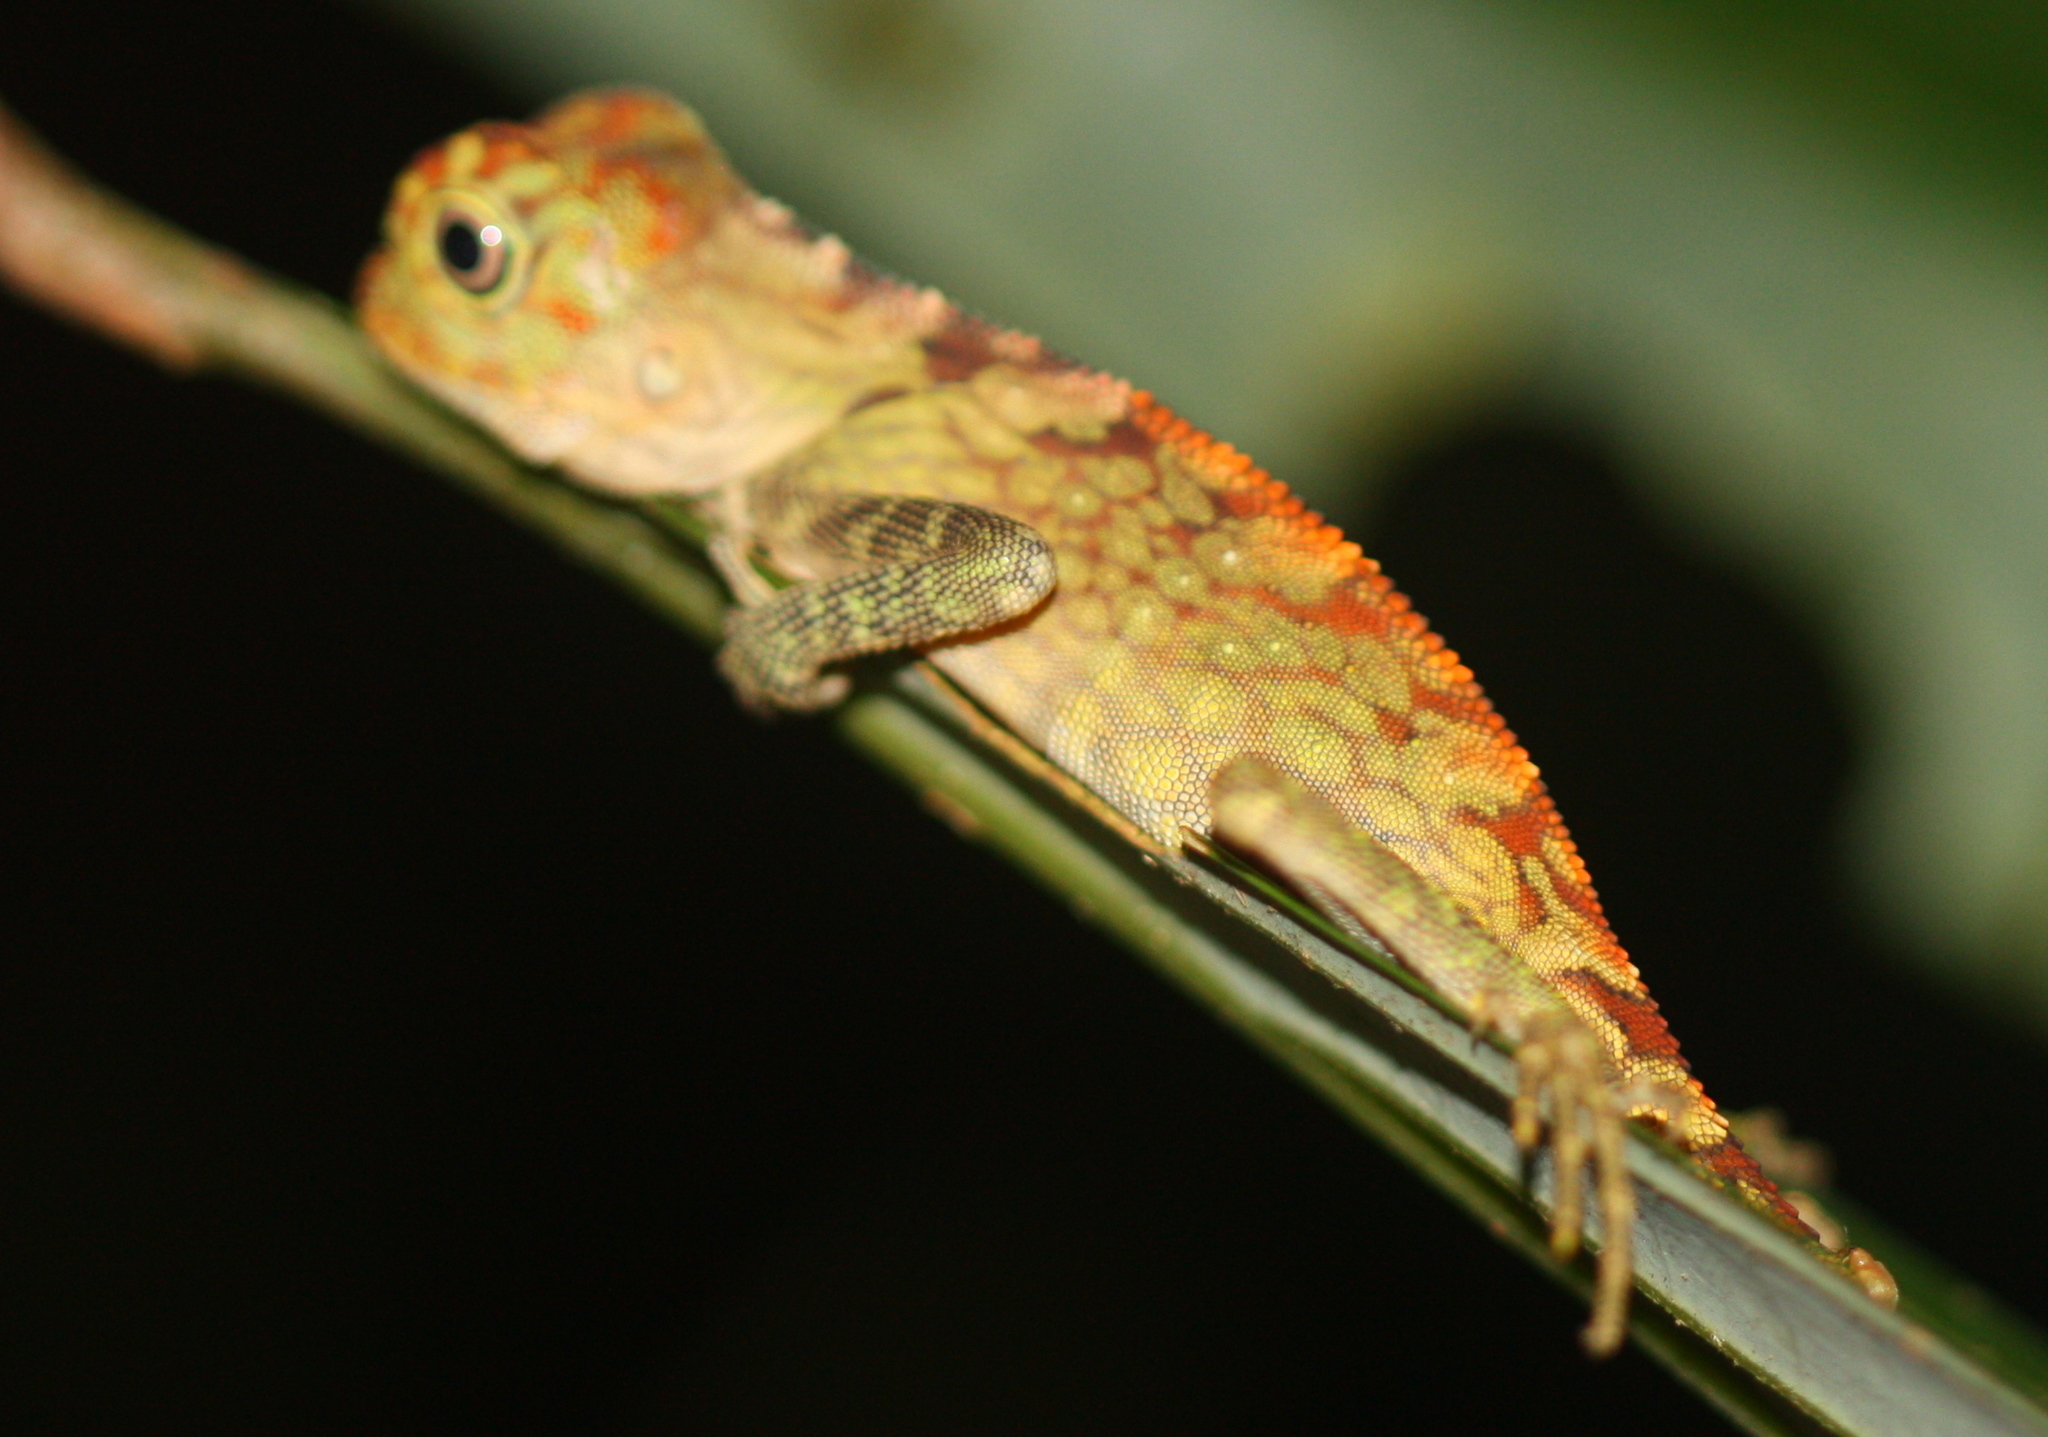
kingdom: Animalia
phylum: Chordata
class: Squamata
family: Agamidae
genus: Gonocephalus
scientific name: Gonocephalus bornensis
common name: Borneo forest dragon
